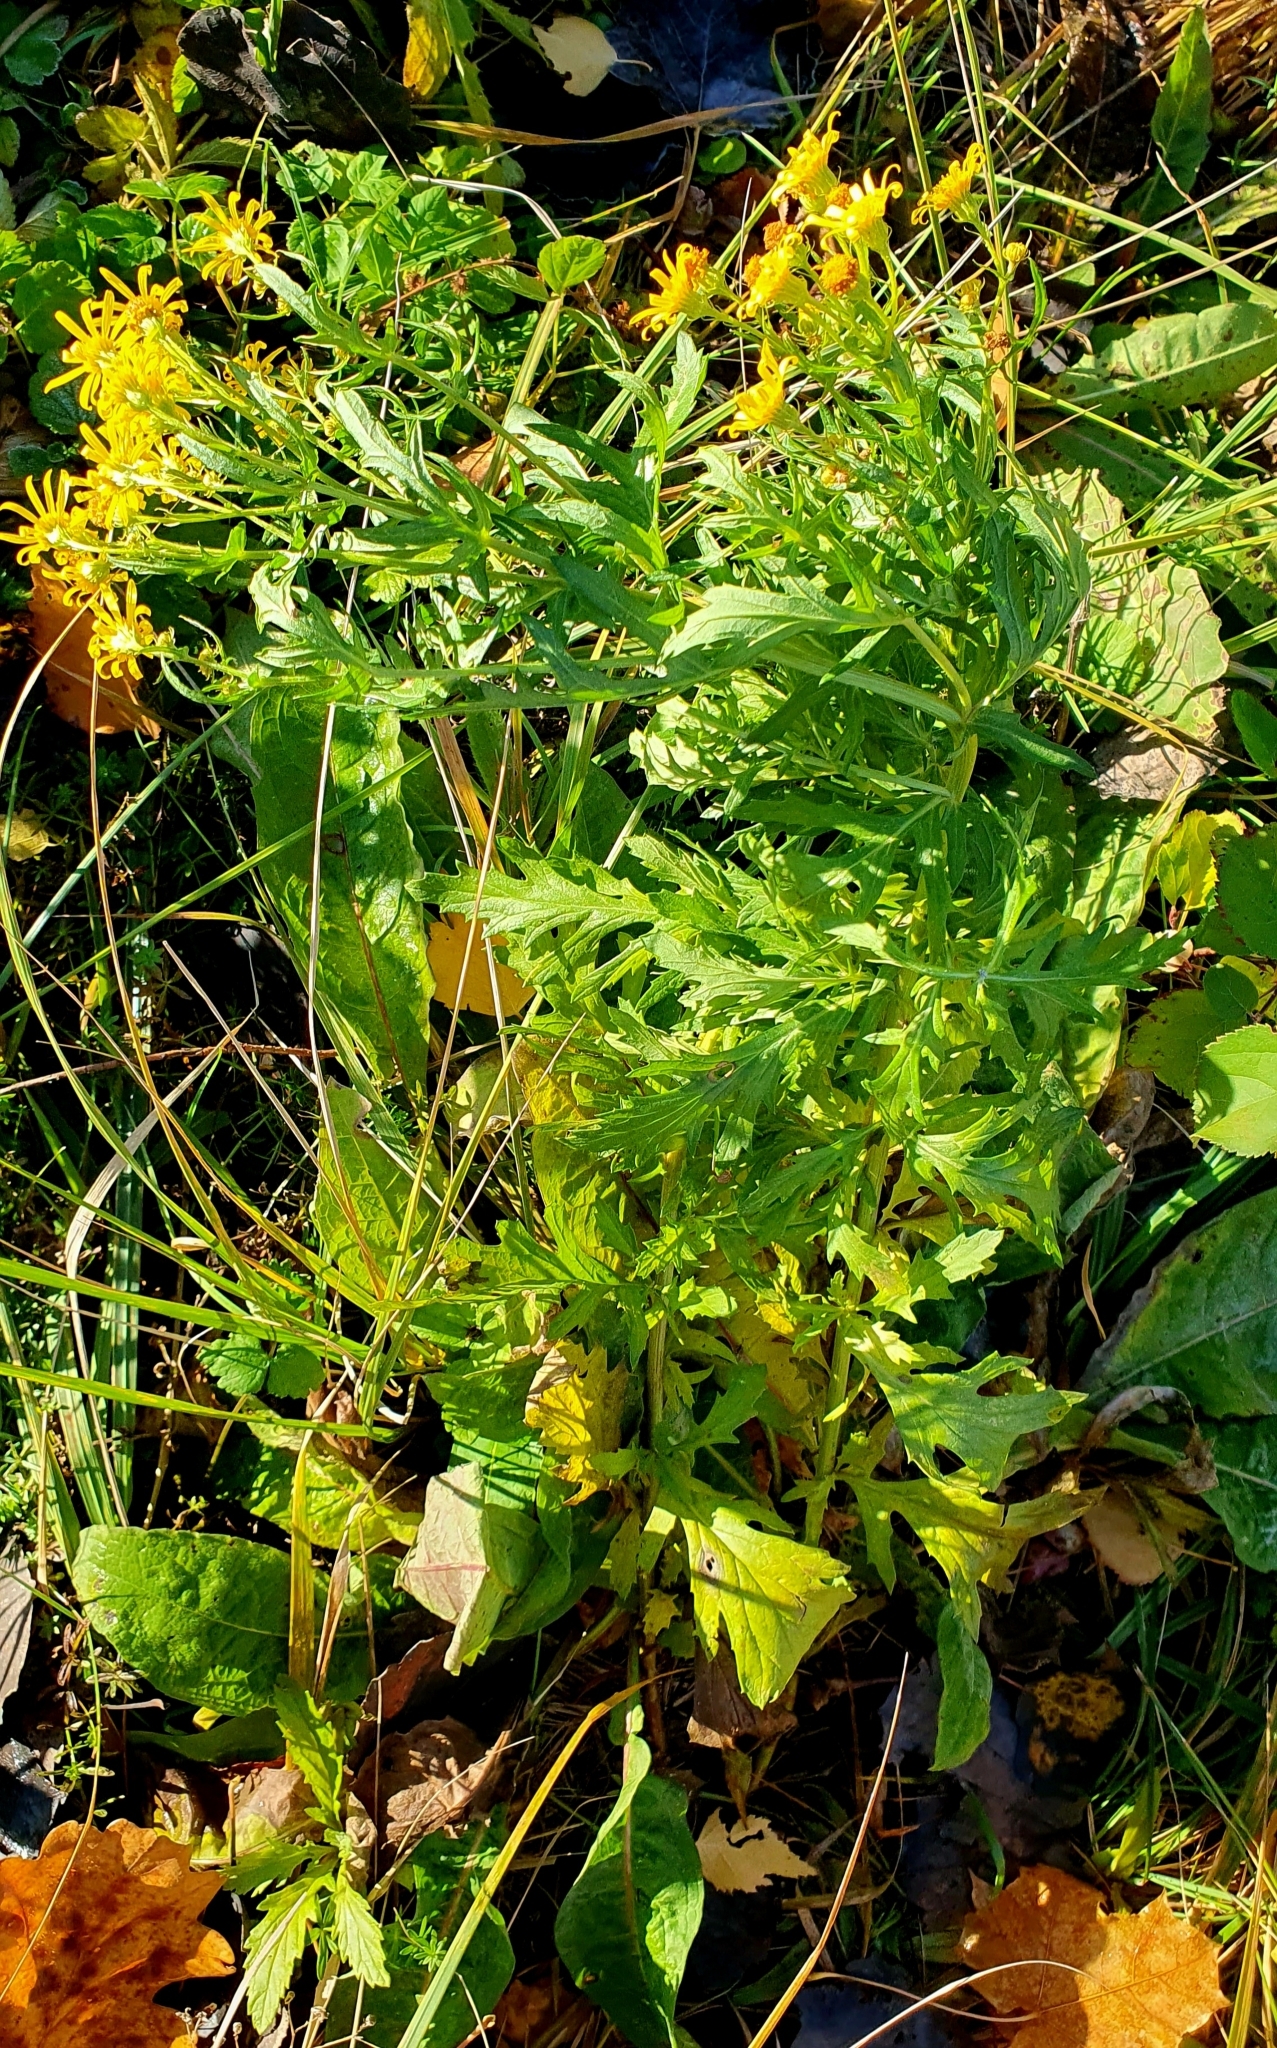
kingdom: Plantae
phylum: Tracheophyta
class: Magnoliopsida
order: Asterales
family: Asteraceae
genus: Jacobaea
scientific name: Jacobaea vulgaris
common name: Stinking willie
